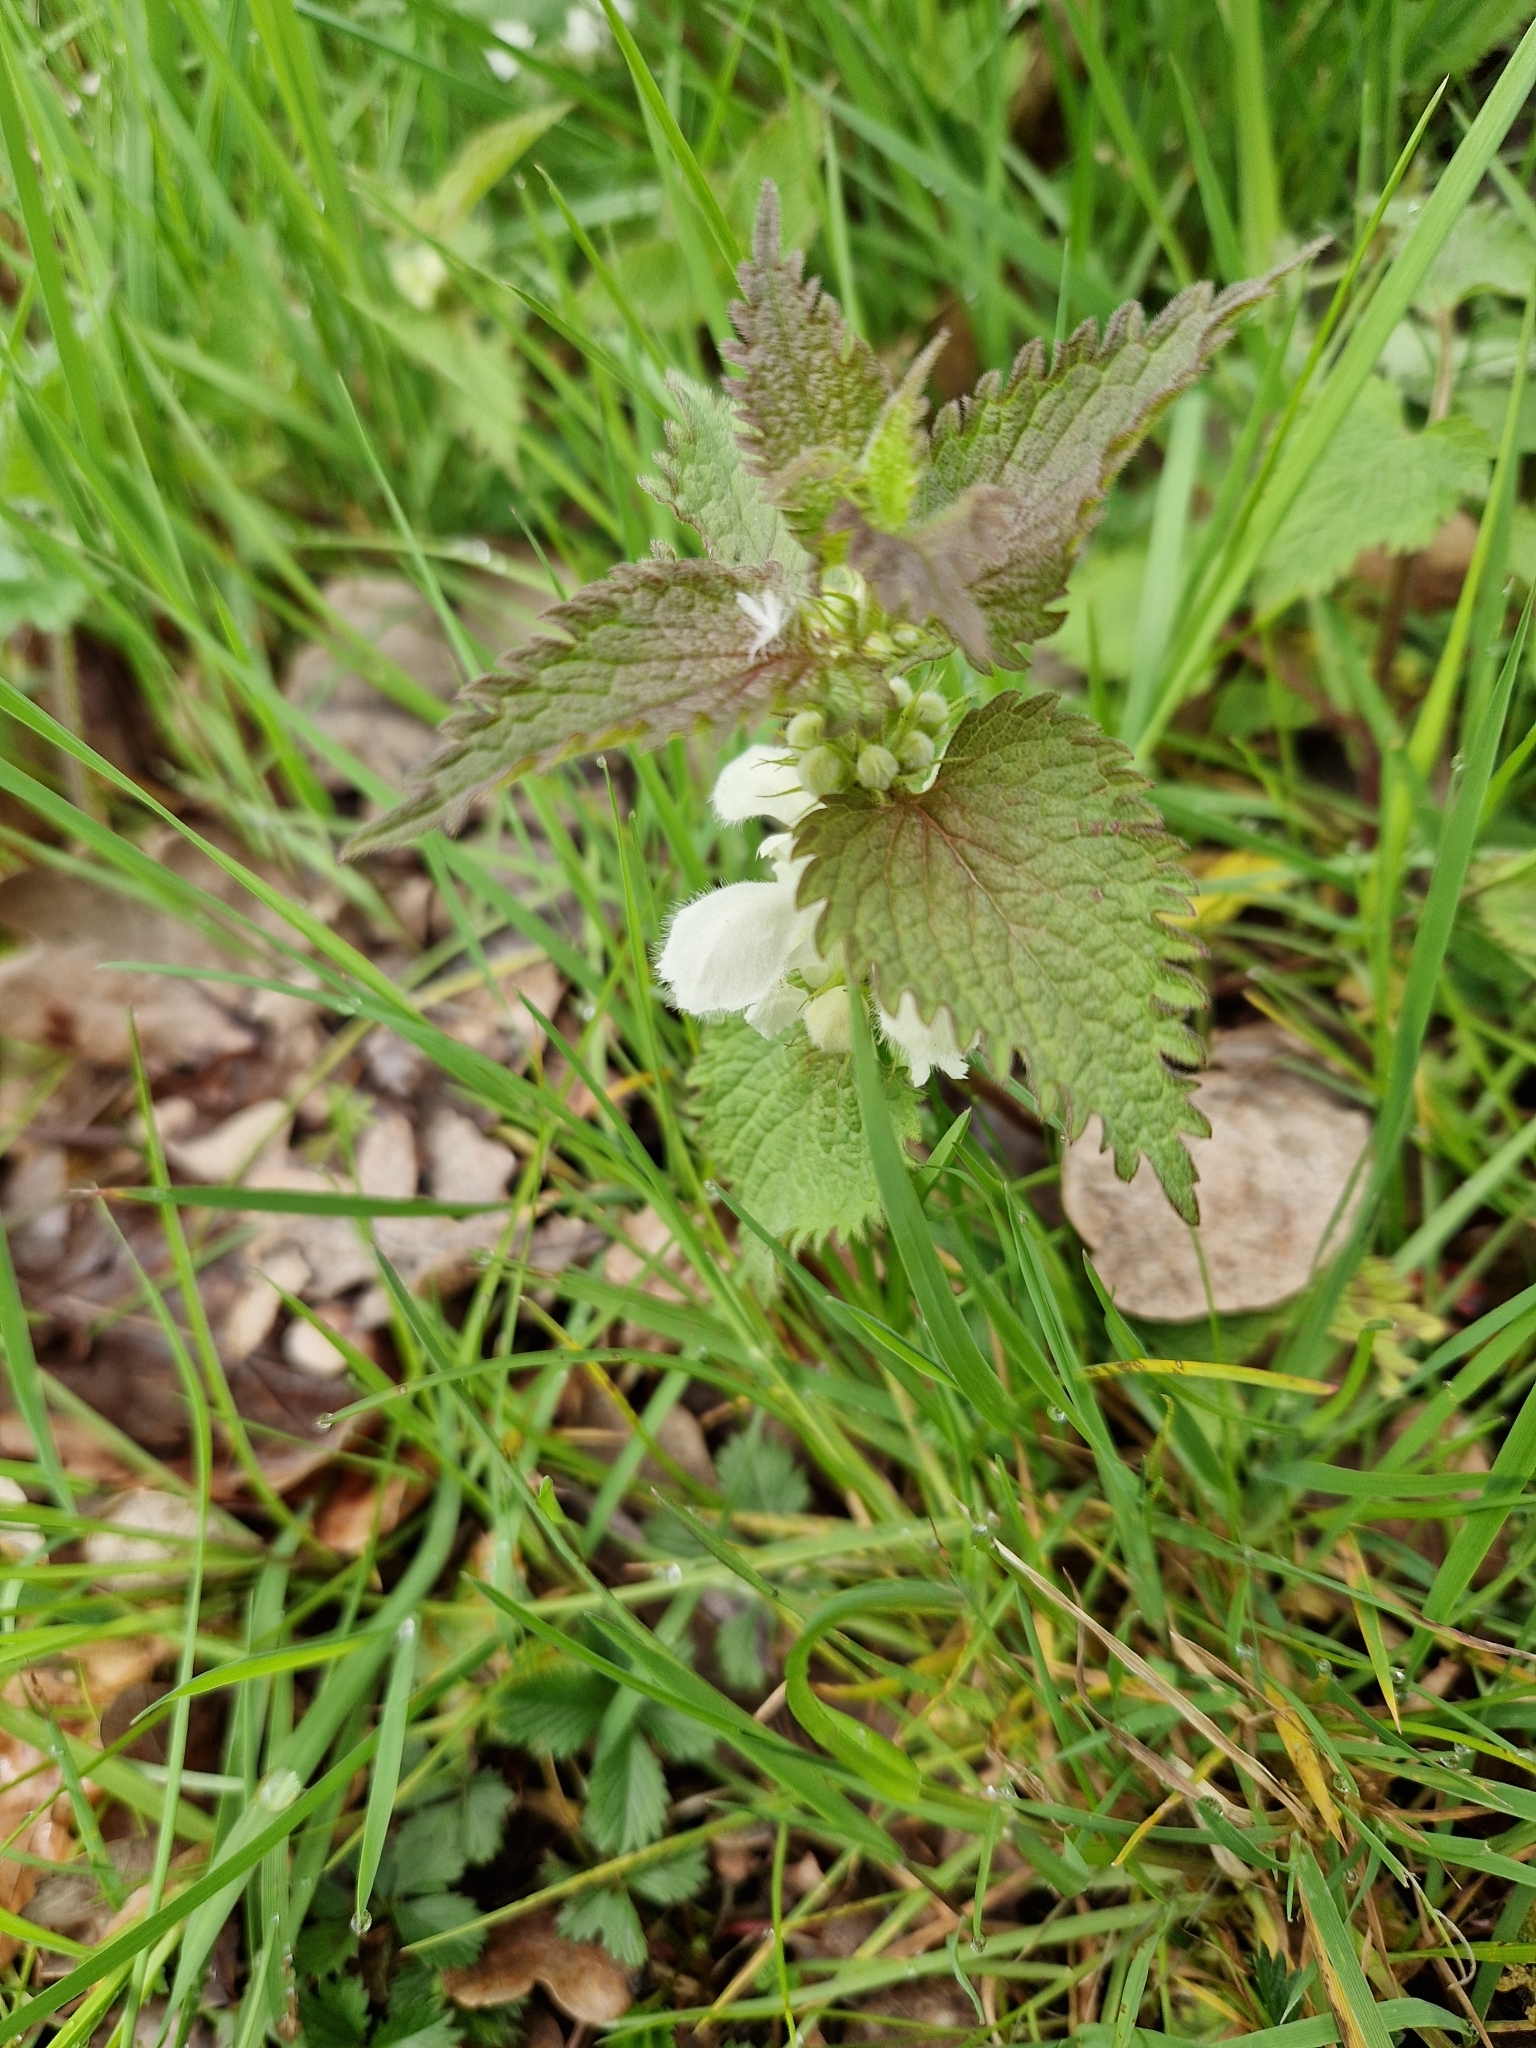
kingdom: Plantae
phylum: Tracheophyta
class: Magnoliopsida
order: Lamiales
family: Lamiaceae
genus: Lamium
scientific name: Lamium album
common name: White dead-nettle
